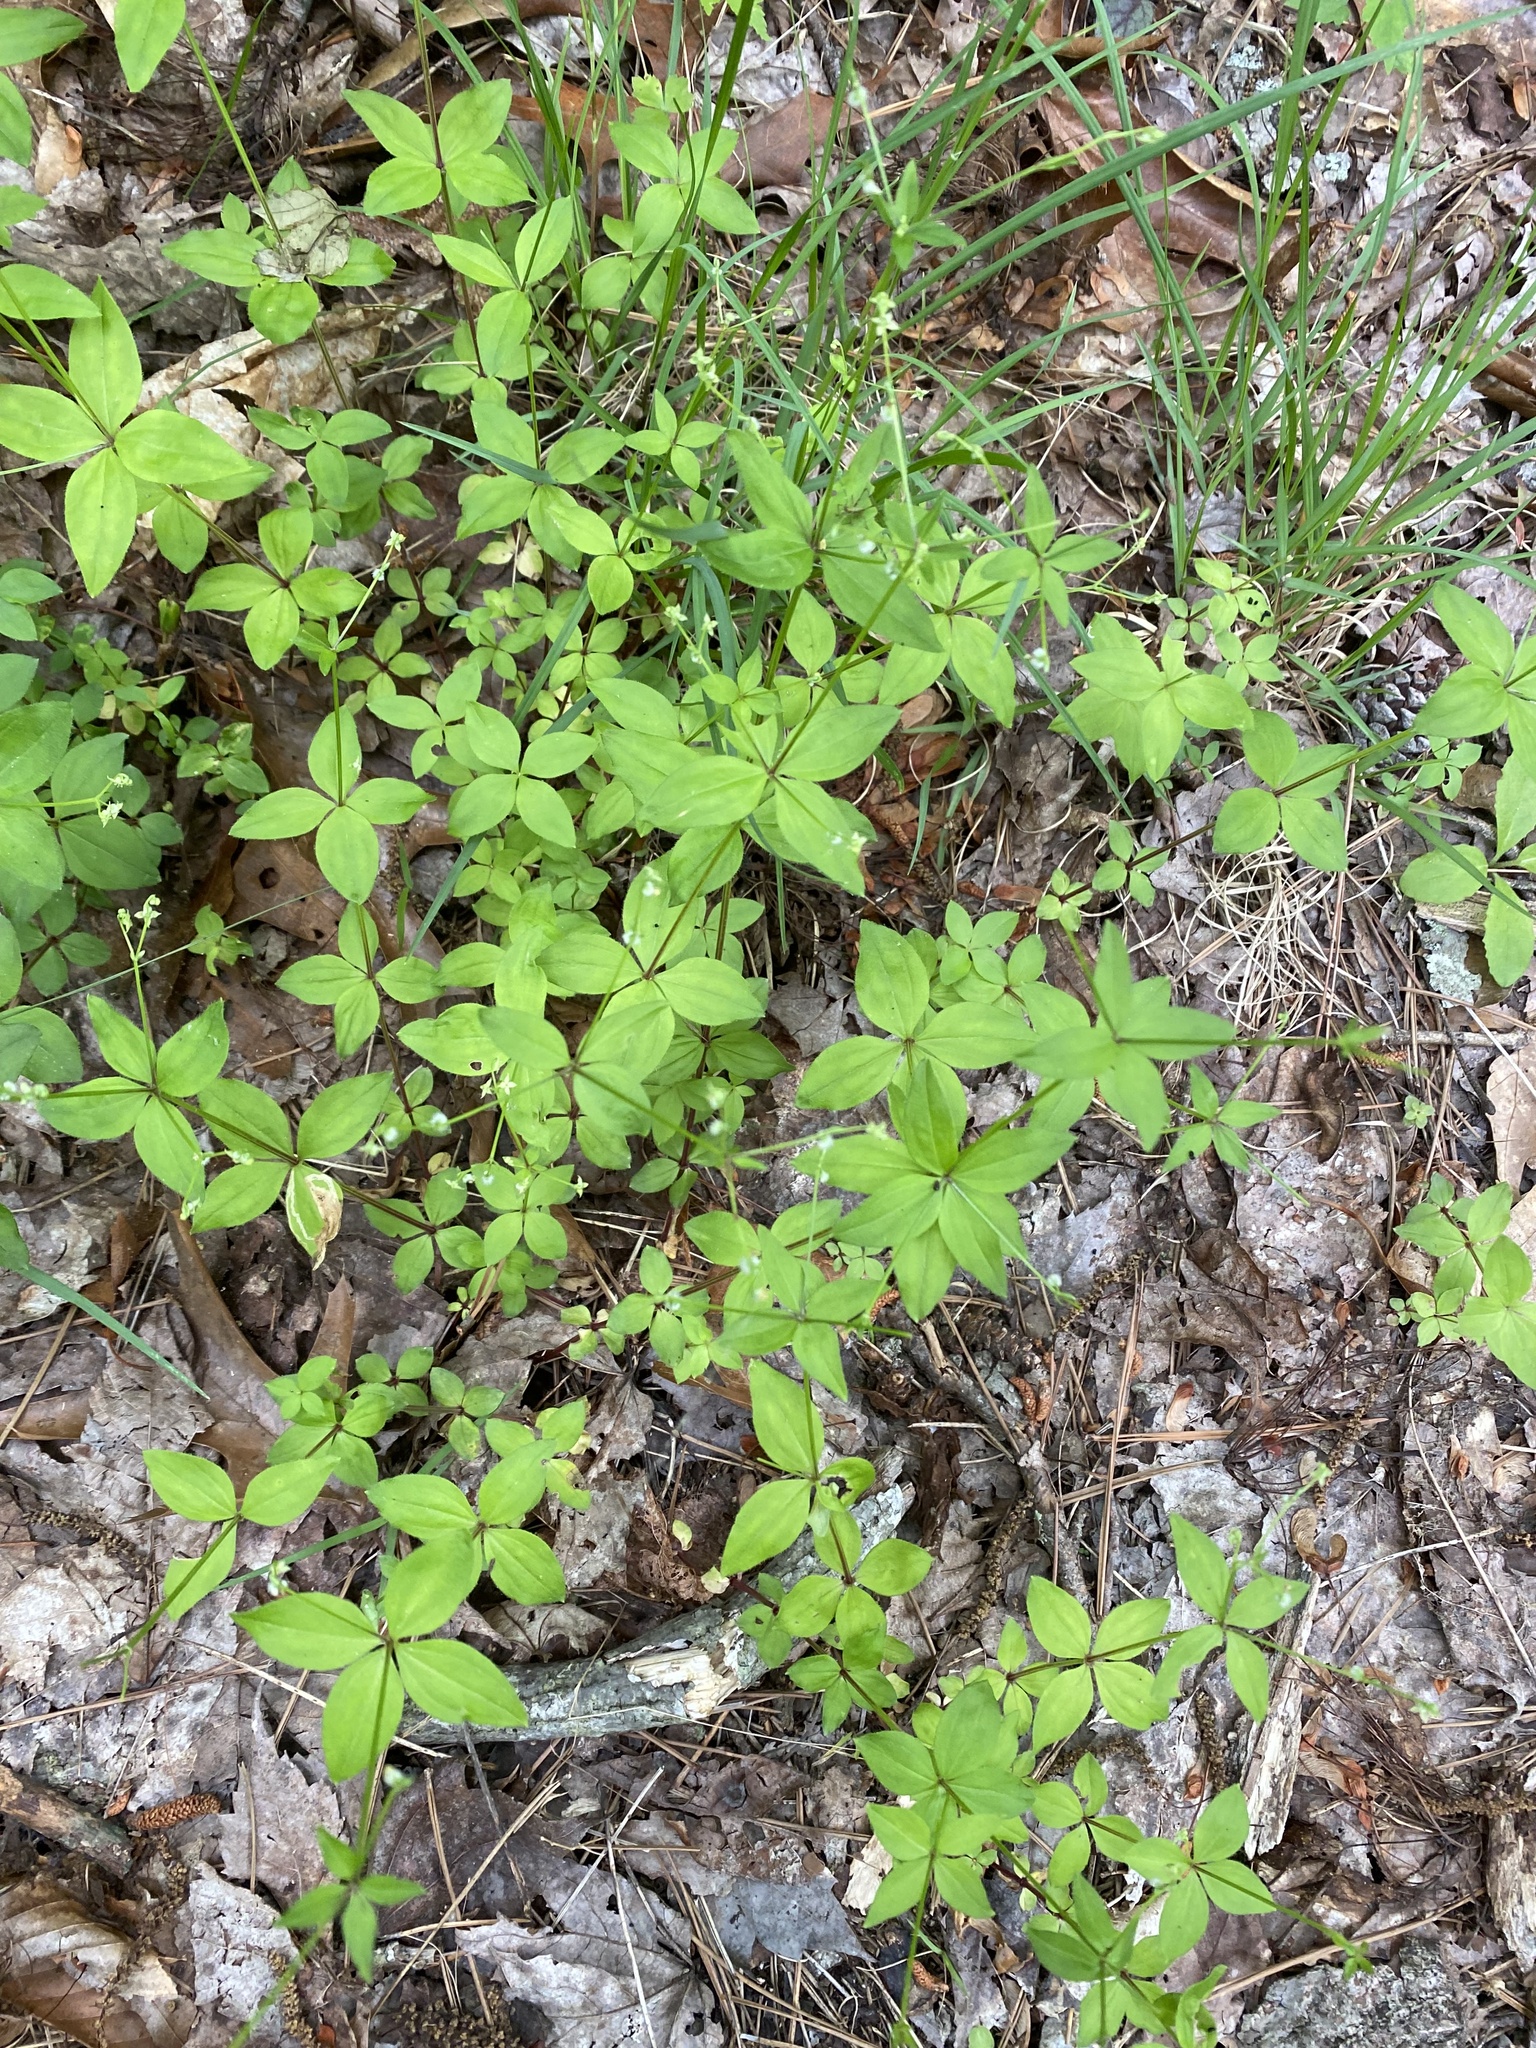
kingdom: Plantae
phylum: Tracheophyta
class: Magnoliopsida
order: Gentianales
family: Rubiaceae
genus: Galium
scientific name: Galium circaezans
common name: Forest bedstraw
